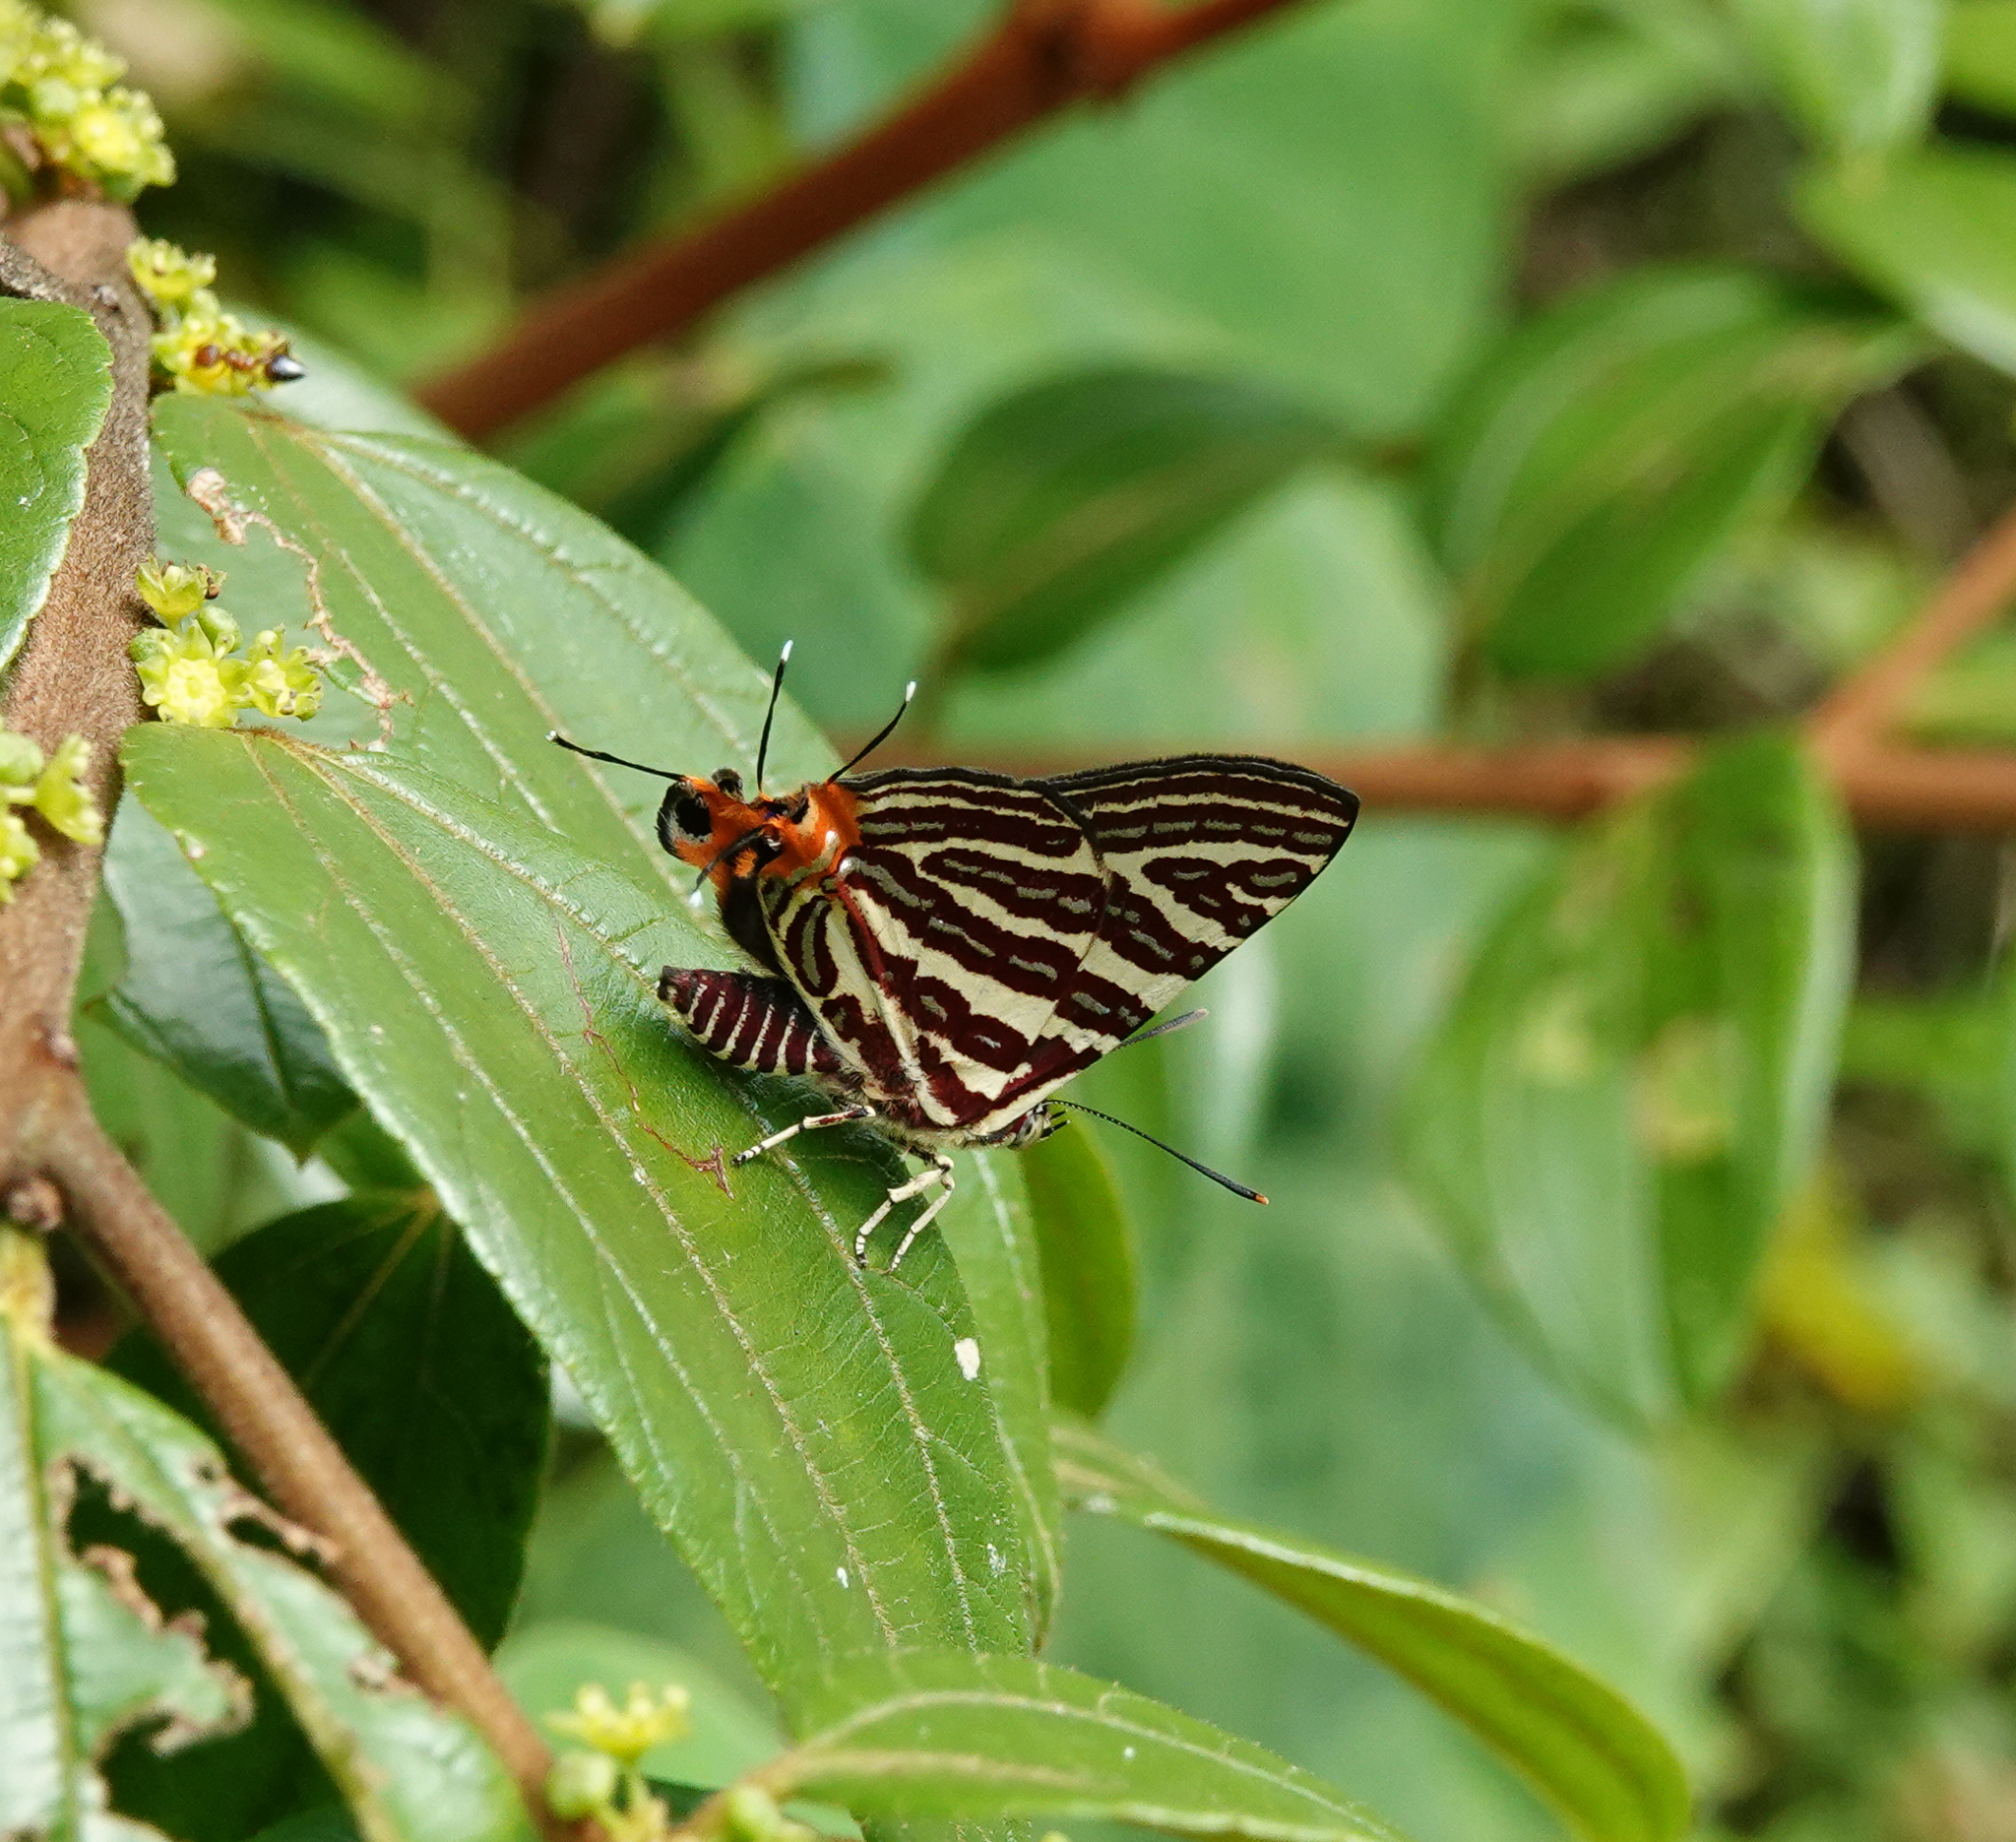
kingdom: Animalia
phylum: Arthropoda
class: Insecta
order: Lepidoptera
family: Lycaenidae
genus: Cigaritis
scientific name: Cigaritis lohita
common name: Long-banded silverline
